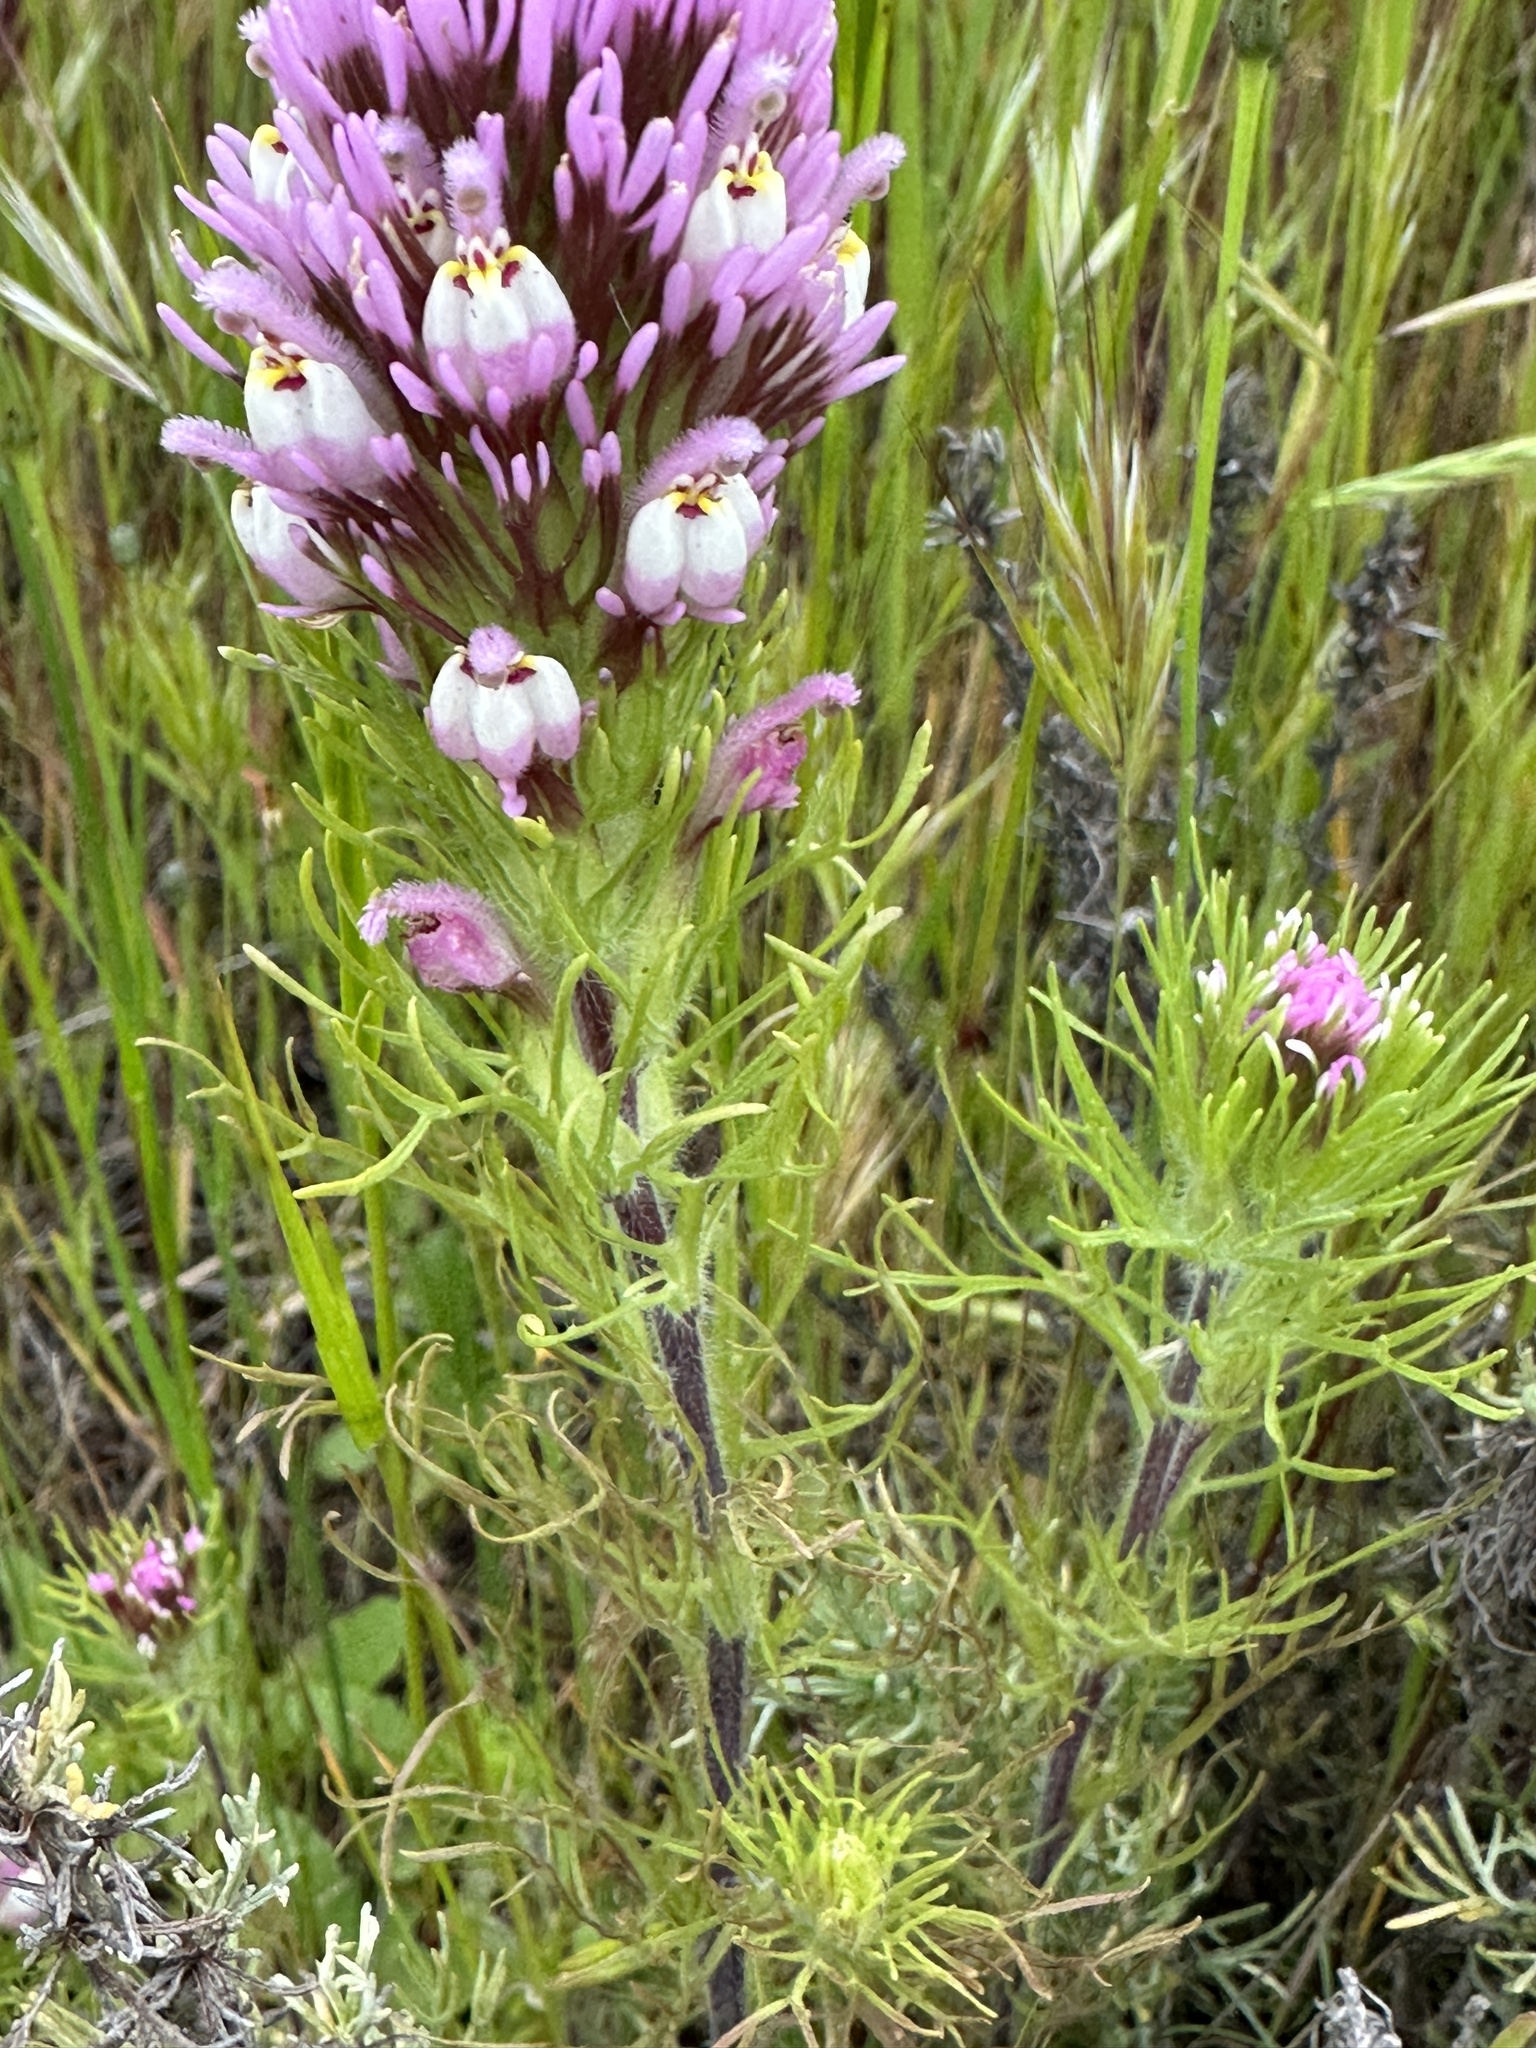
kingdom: Plantae
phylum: Tracheophyta
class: Magnoliopsida
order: Lamiales
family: Orobanchaceae
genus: Castilleja
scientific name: Castilleja exserta
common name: Purple owl-clover
